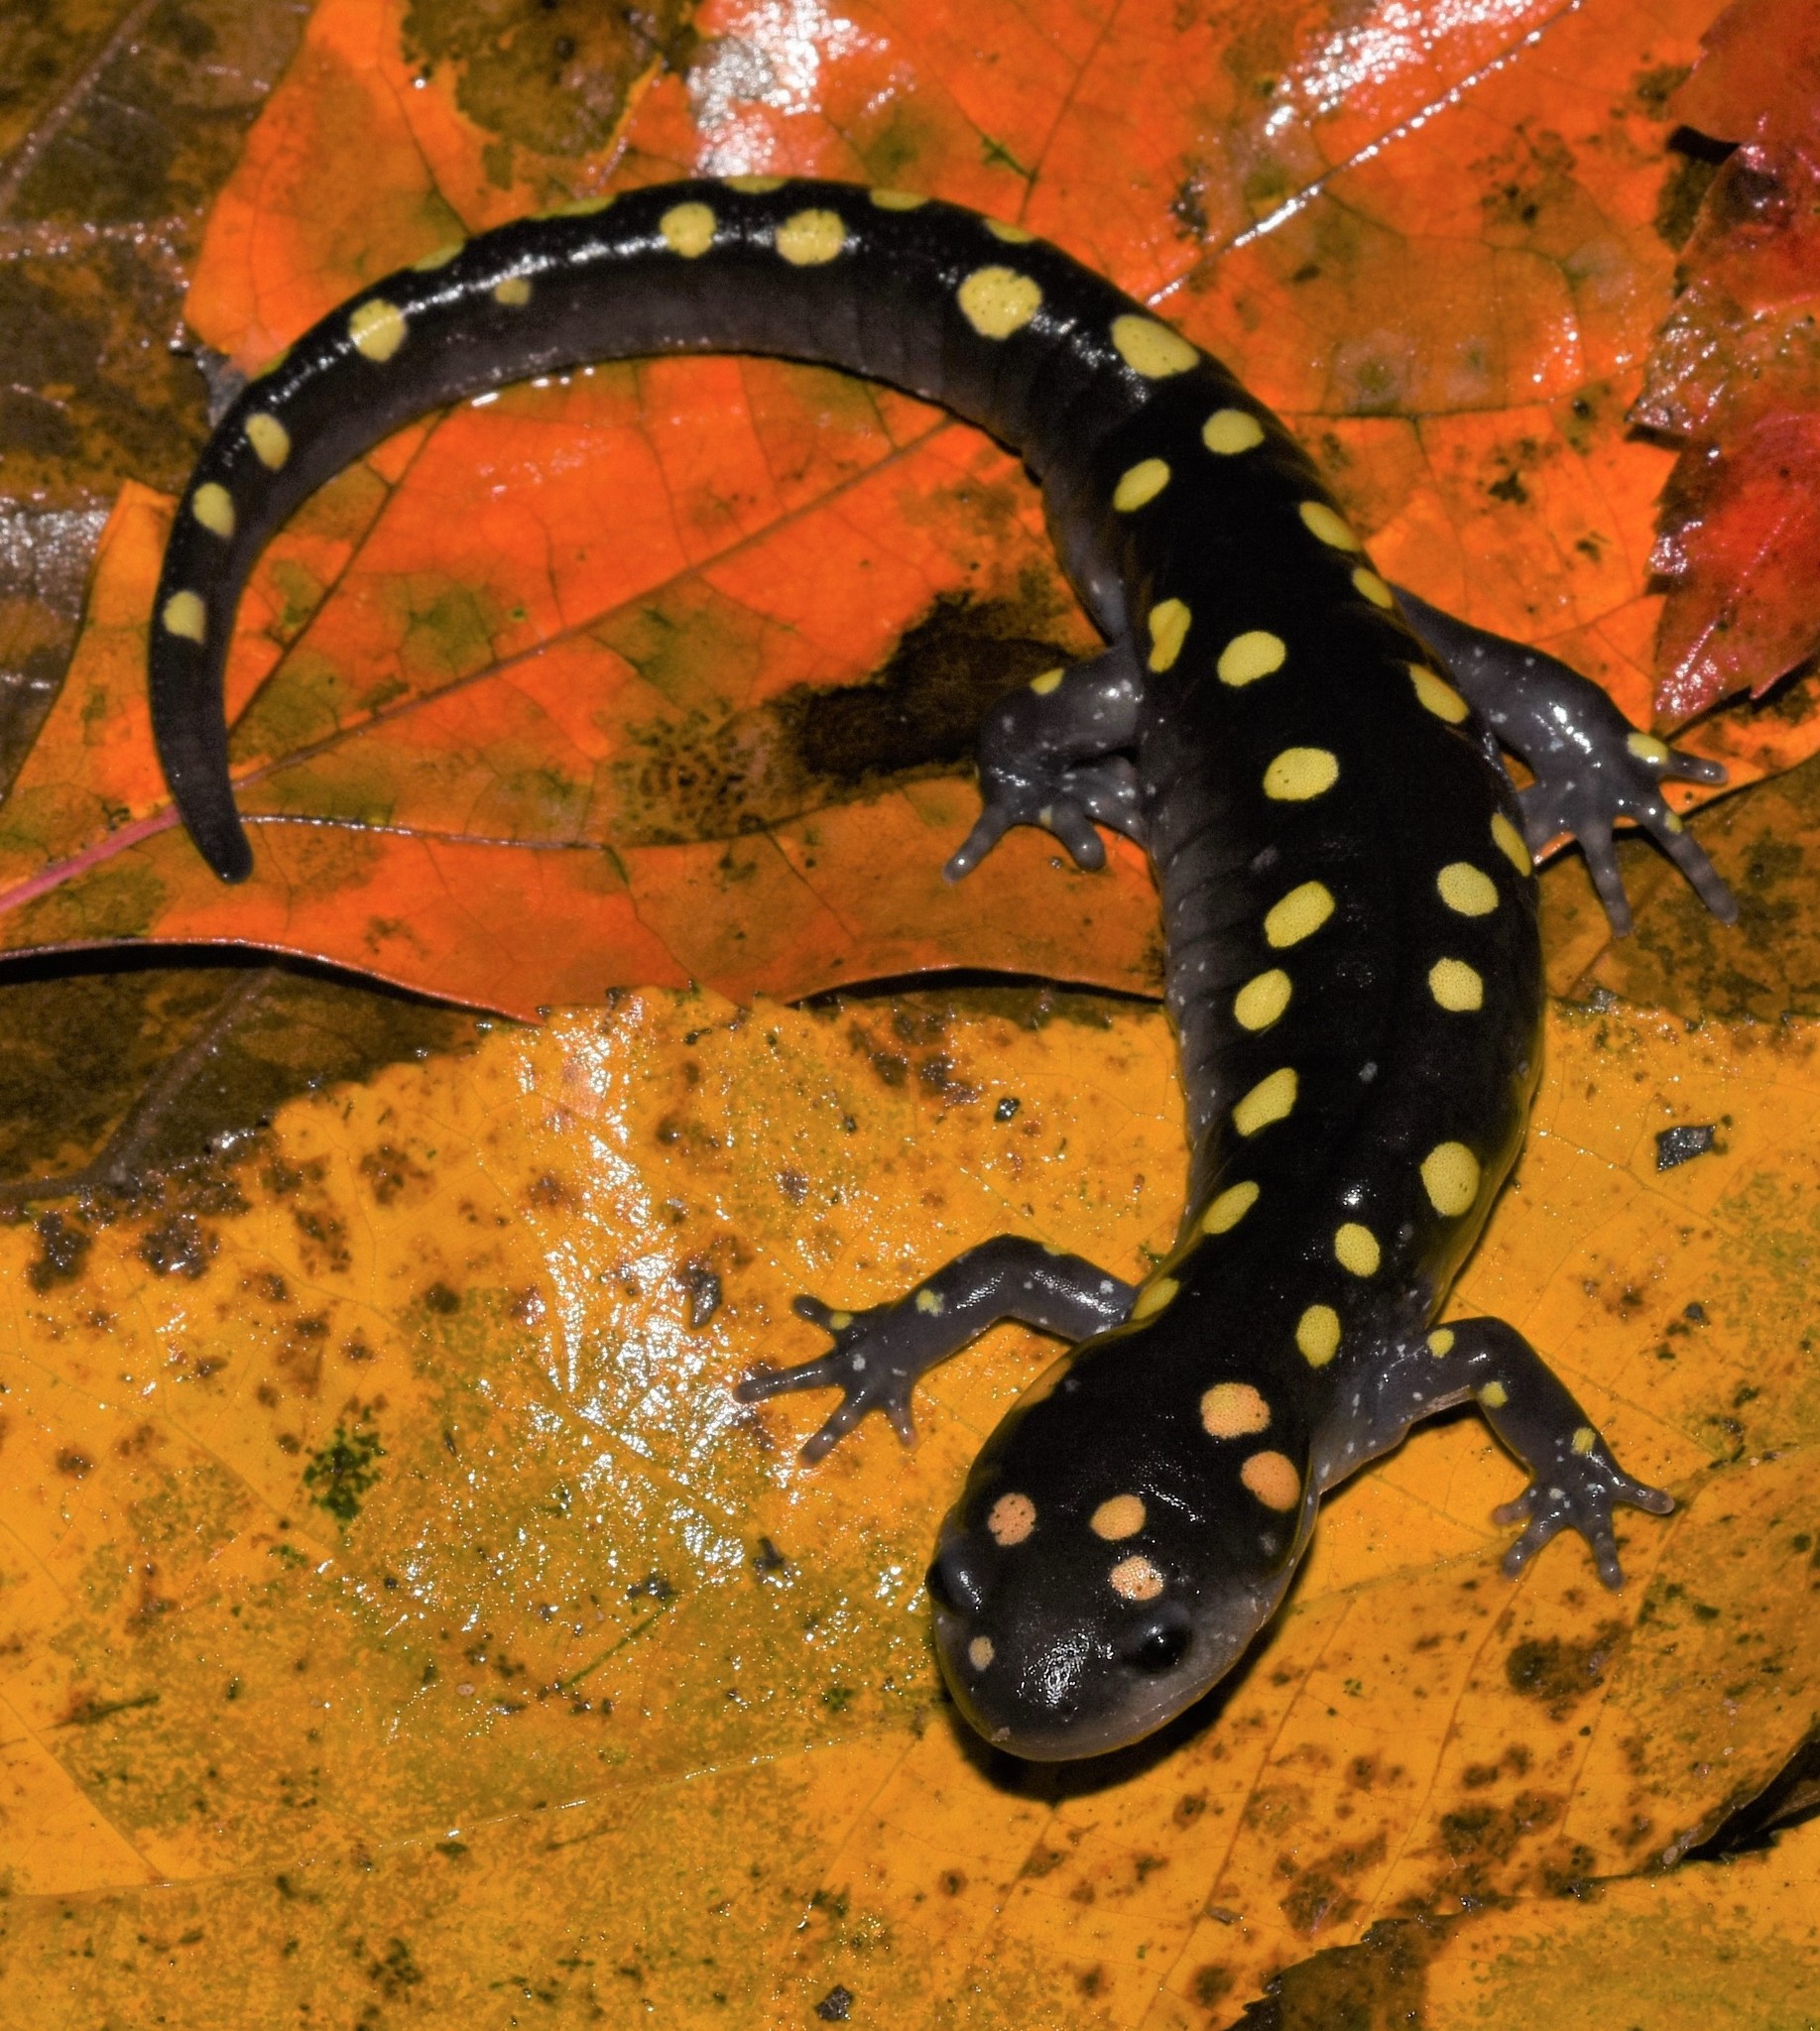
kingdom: Animalia
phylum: Chordata
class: Amphibia
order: Caudata
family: Ambystomatidae
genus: Ambystoma
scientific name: Ambystoma maculatum
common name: Spotted salamander
